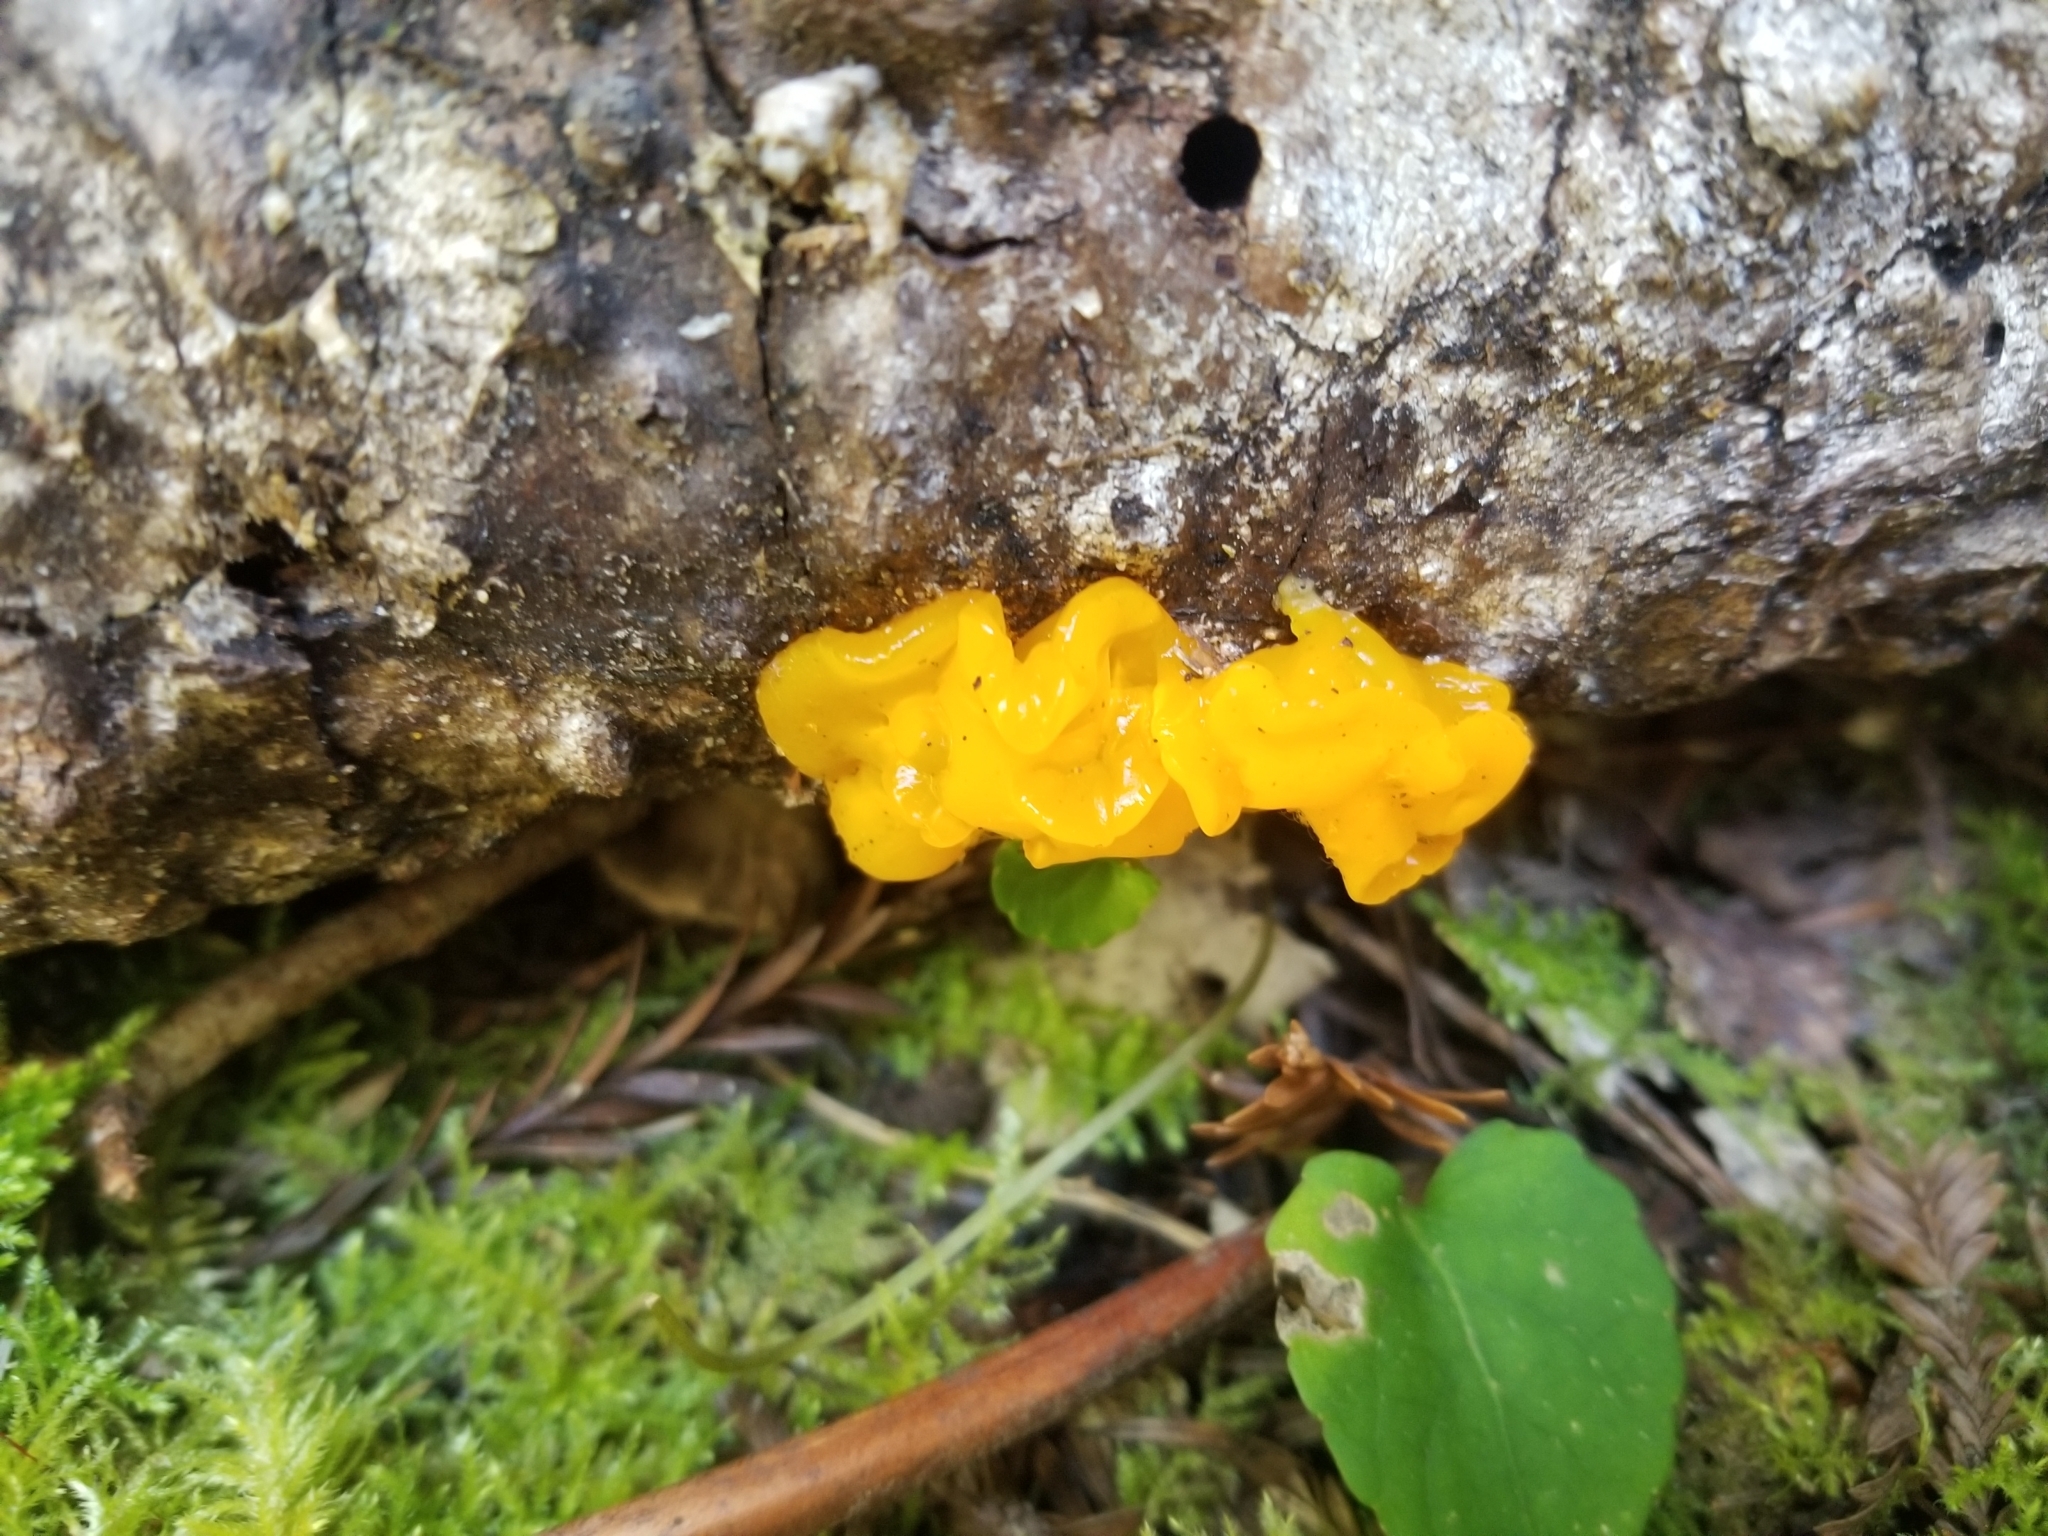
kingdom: Fungi
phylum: Basidiomycota
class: Dacrymycetes
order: Dacrymycetales
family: Dacrymycetaceae
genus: Dacrymyces
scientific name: Dacrymyces chrysospermus
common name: Orange jelly spot
